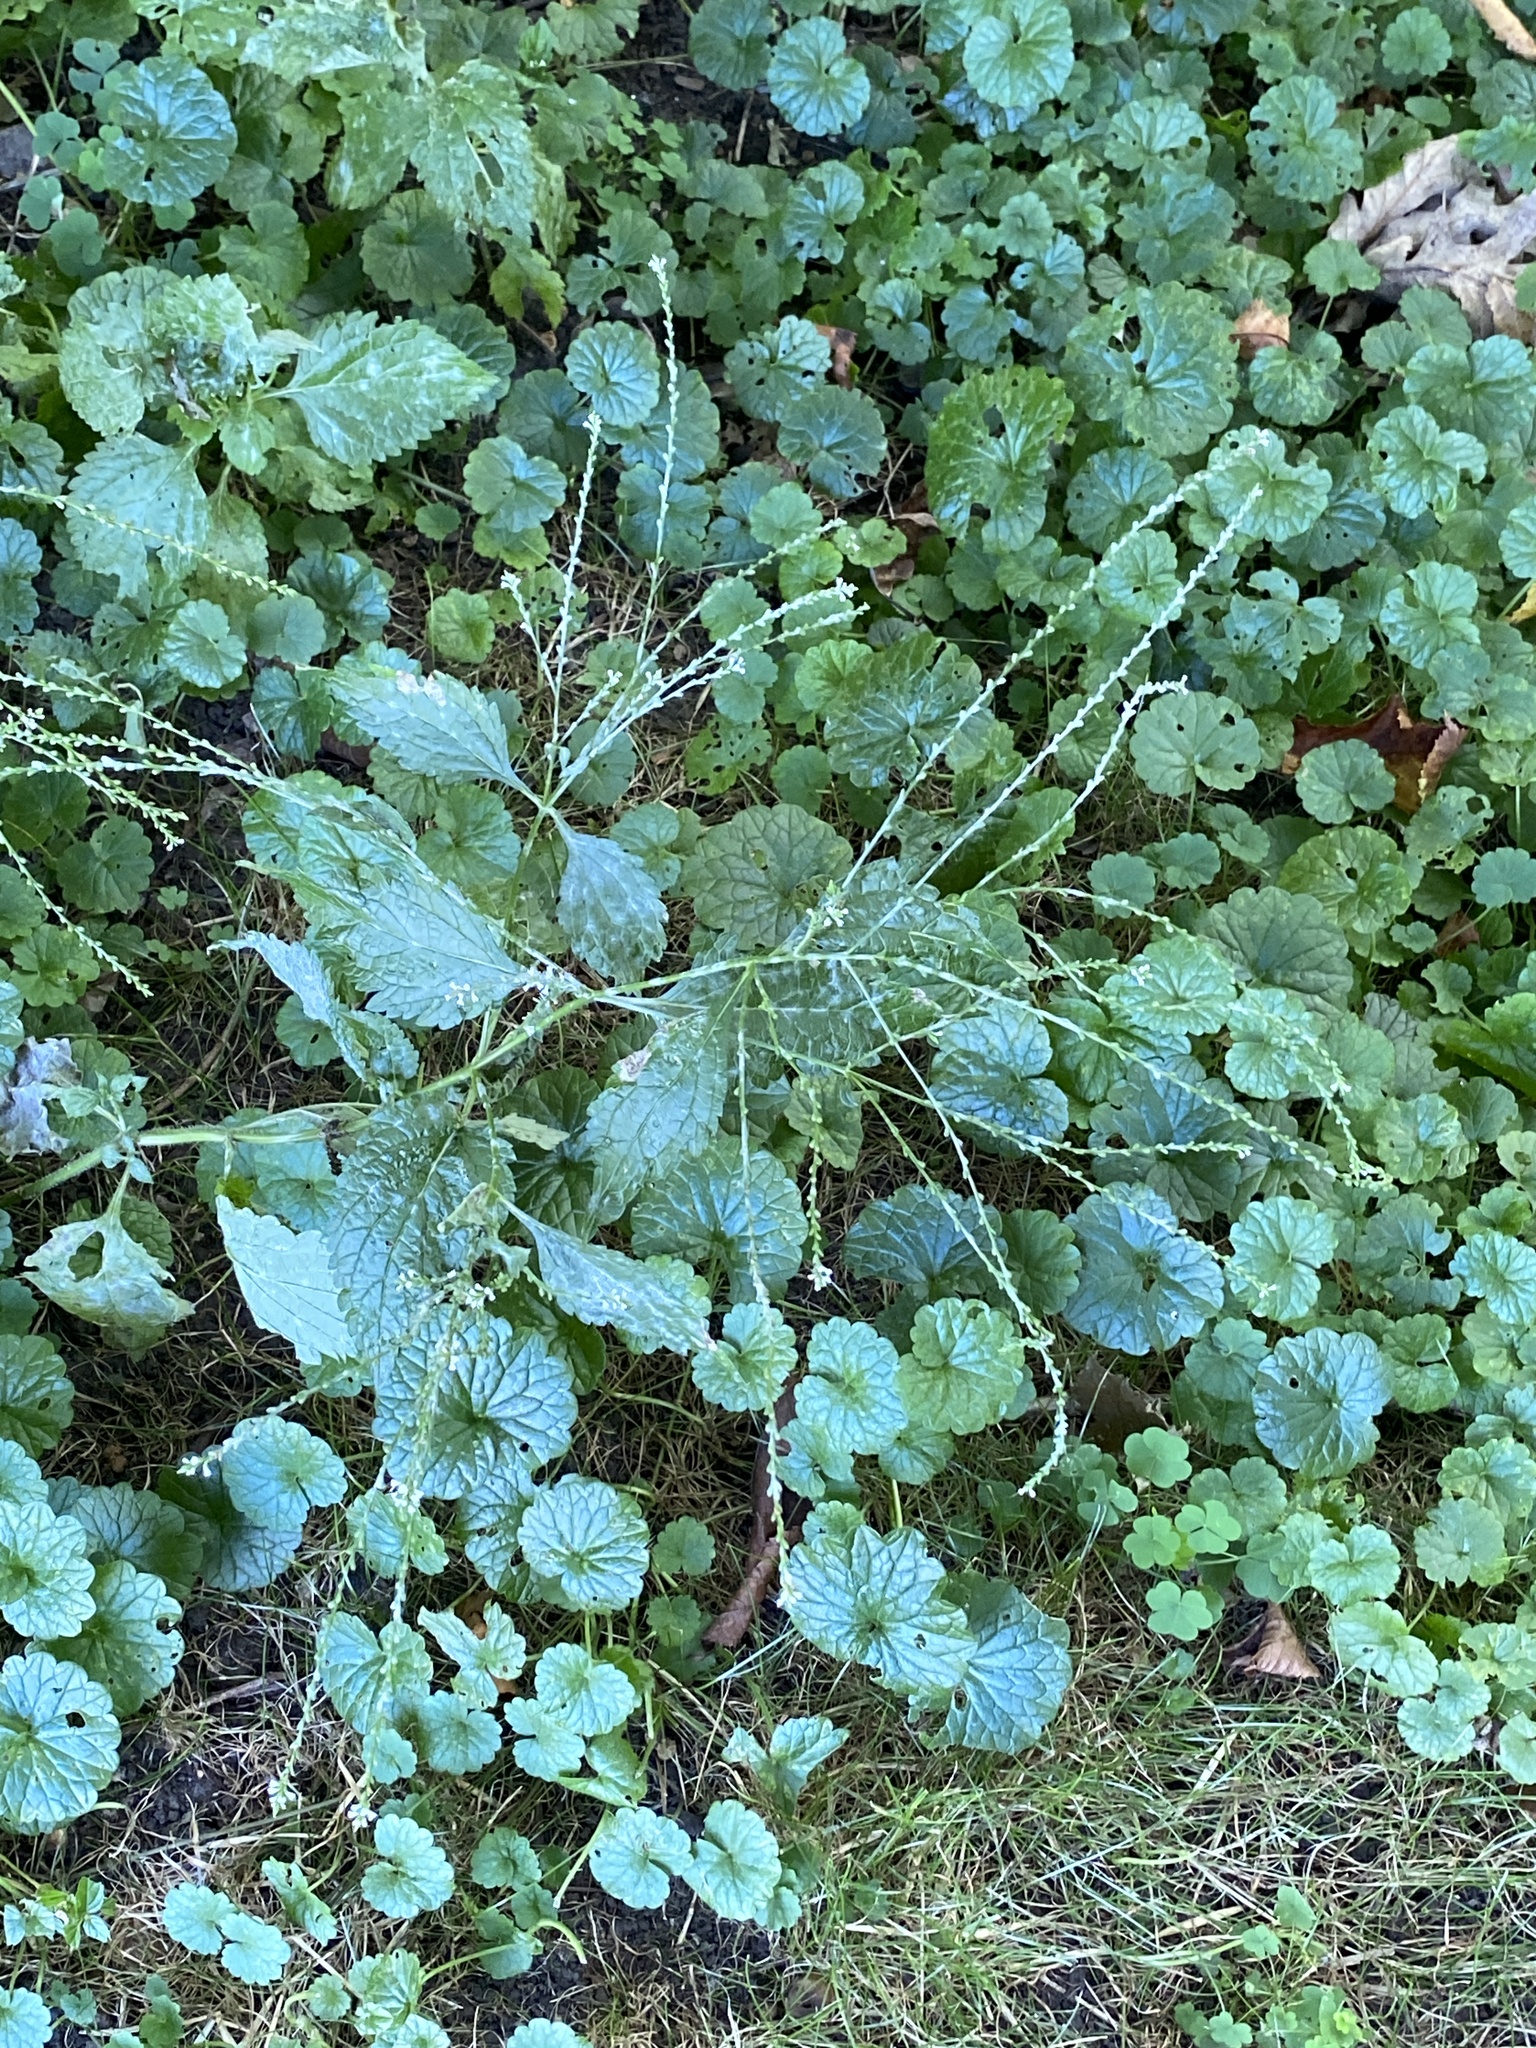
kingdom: Plantae
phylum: Tracheophyta
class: Magnoliopsida
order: Lamiales
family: Verbenaceae
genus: Verbena
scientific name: Verbena urticifolia
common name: Nettle-leaved vervain
